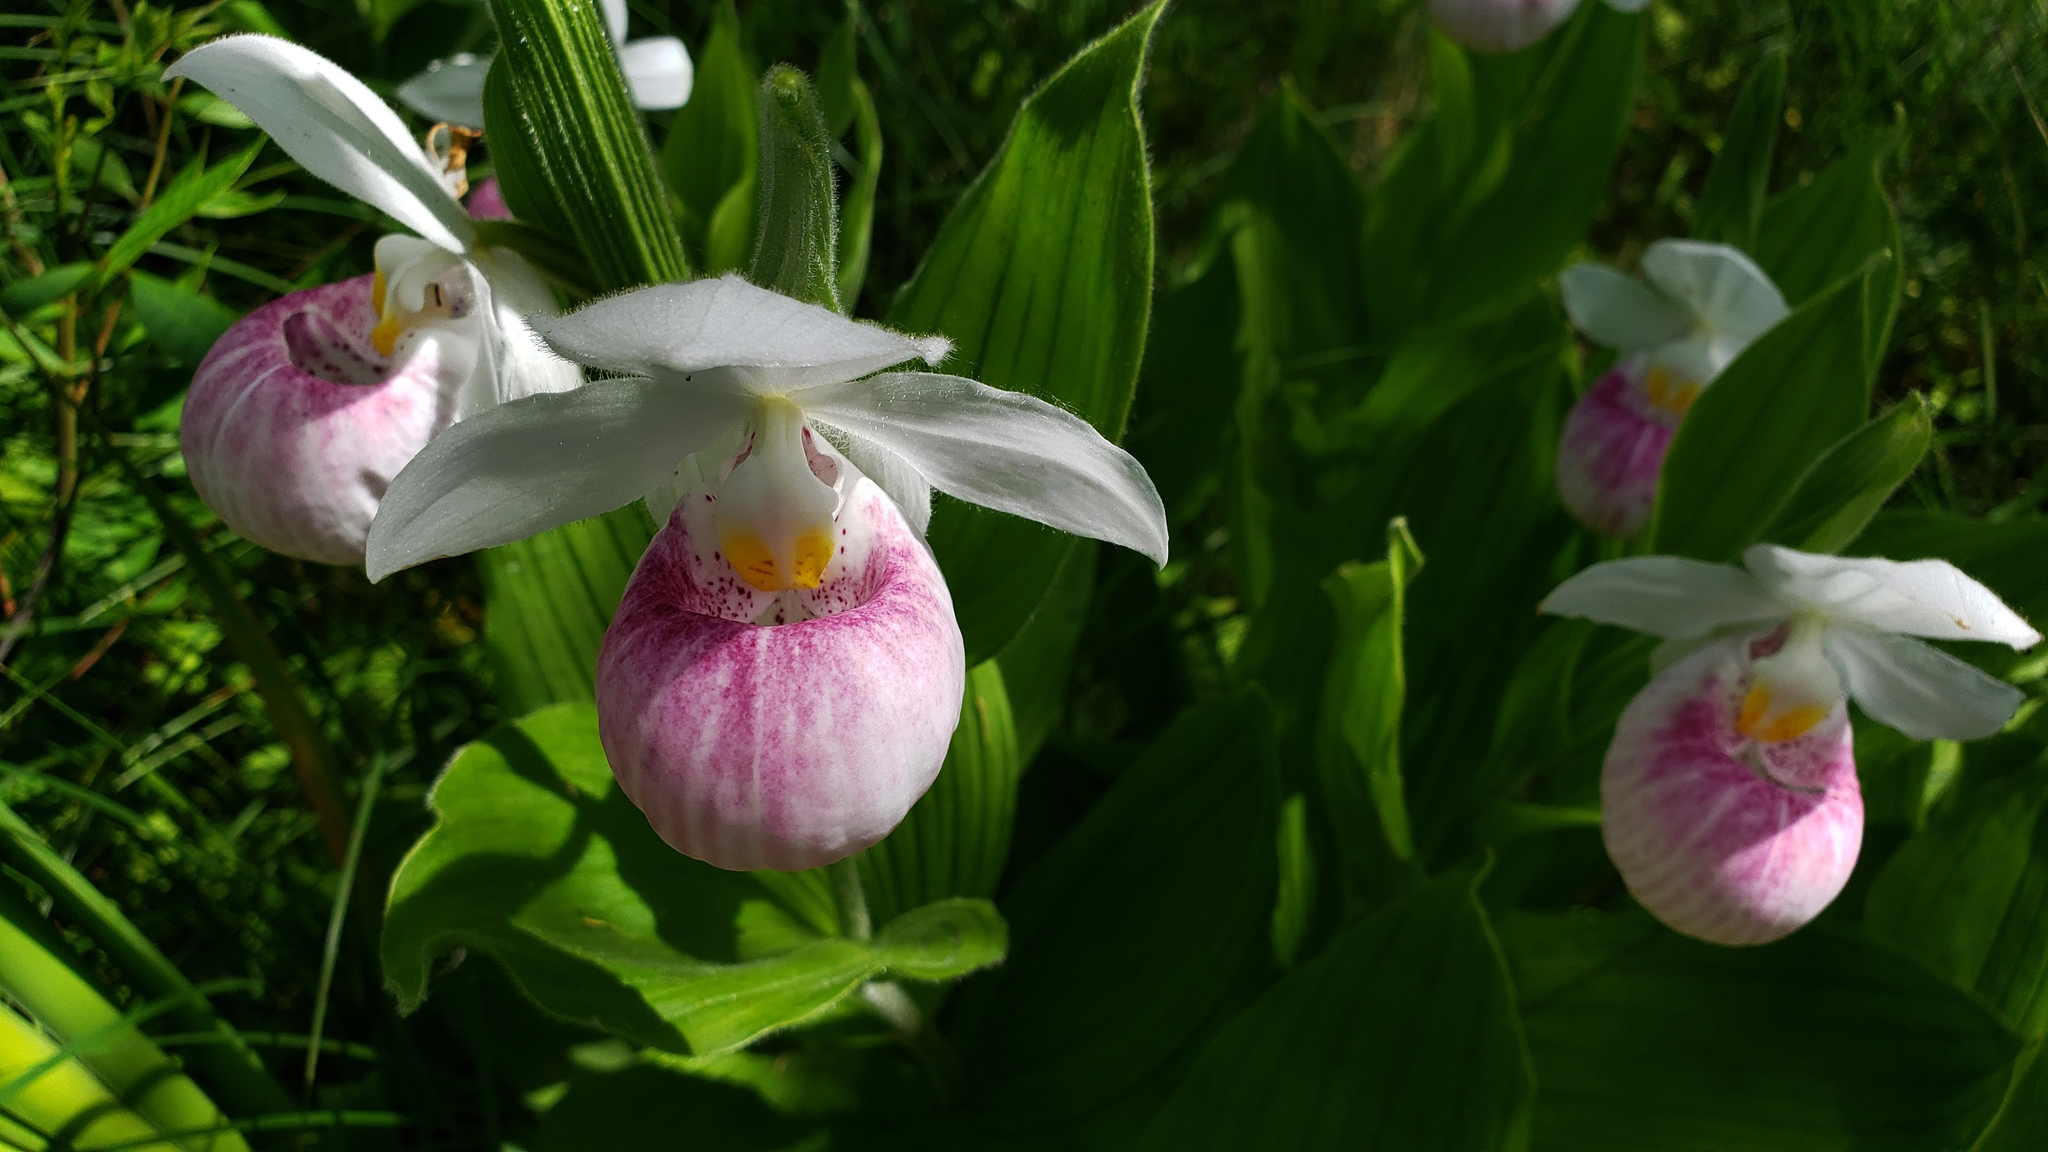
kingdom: Plantae
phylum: Tracheophyta
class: Liliopsida
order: Asparagales
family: Orchidaceae
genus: Cypripedium
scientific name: Cypripedium reginae
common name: Queen lady's-slipper
